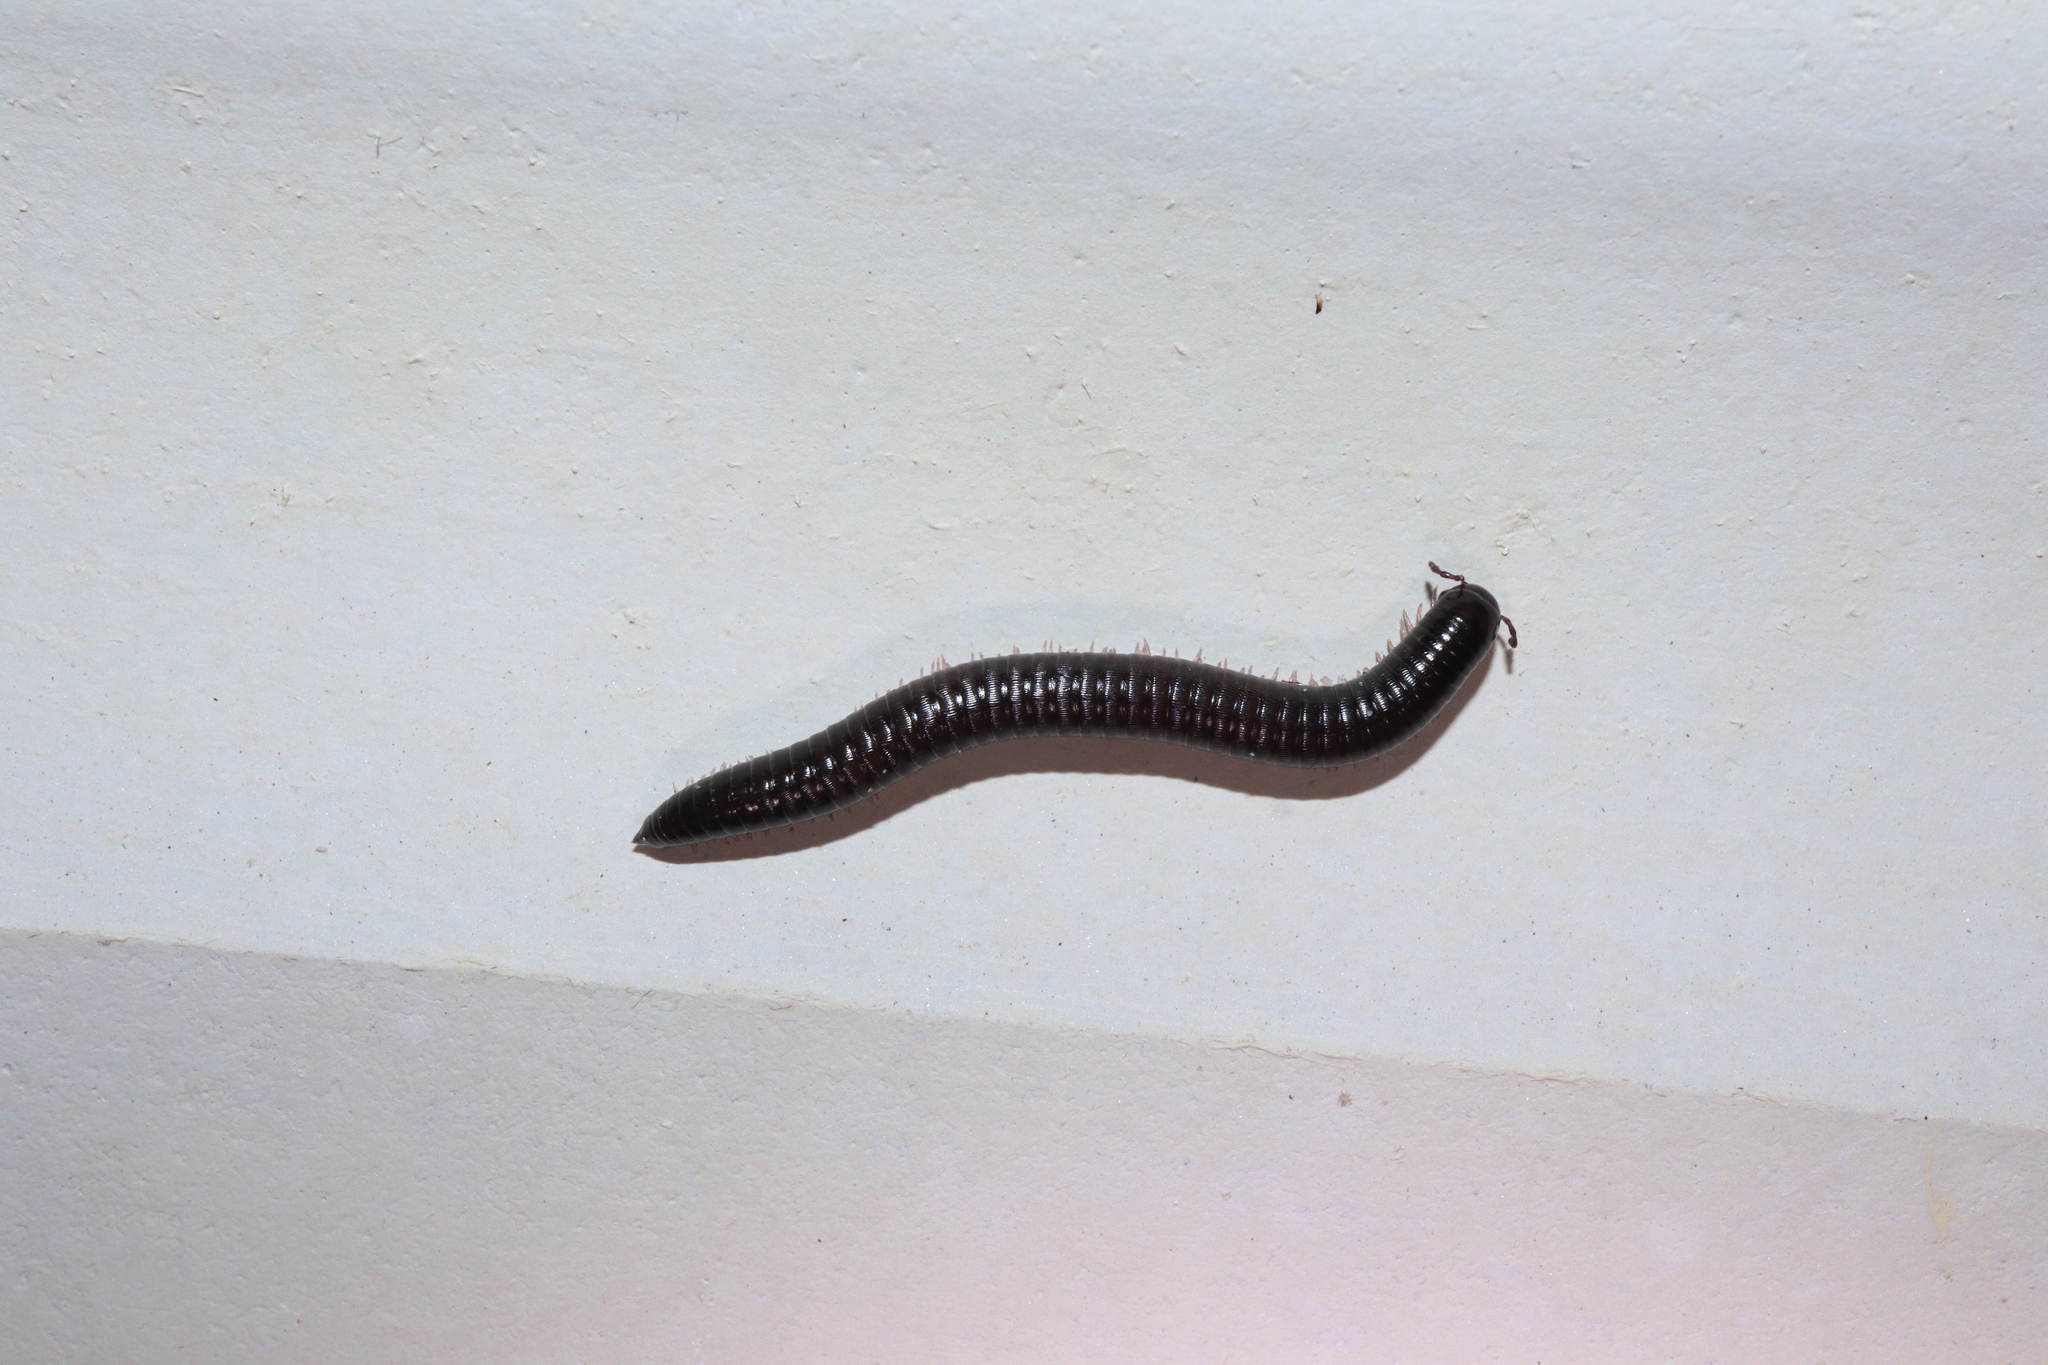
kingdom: Animalia
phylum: Arthropoda
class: Diplopoda
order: Julida
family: Julidae
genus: Ommatoiulus
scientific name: Ommatoiulus moreleti
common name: Portuguese millipede
